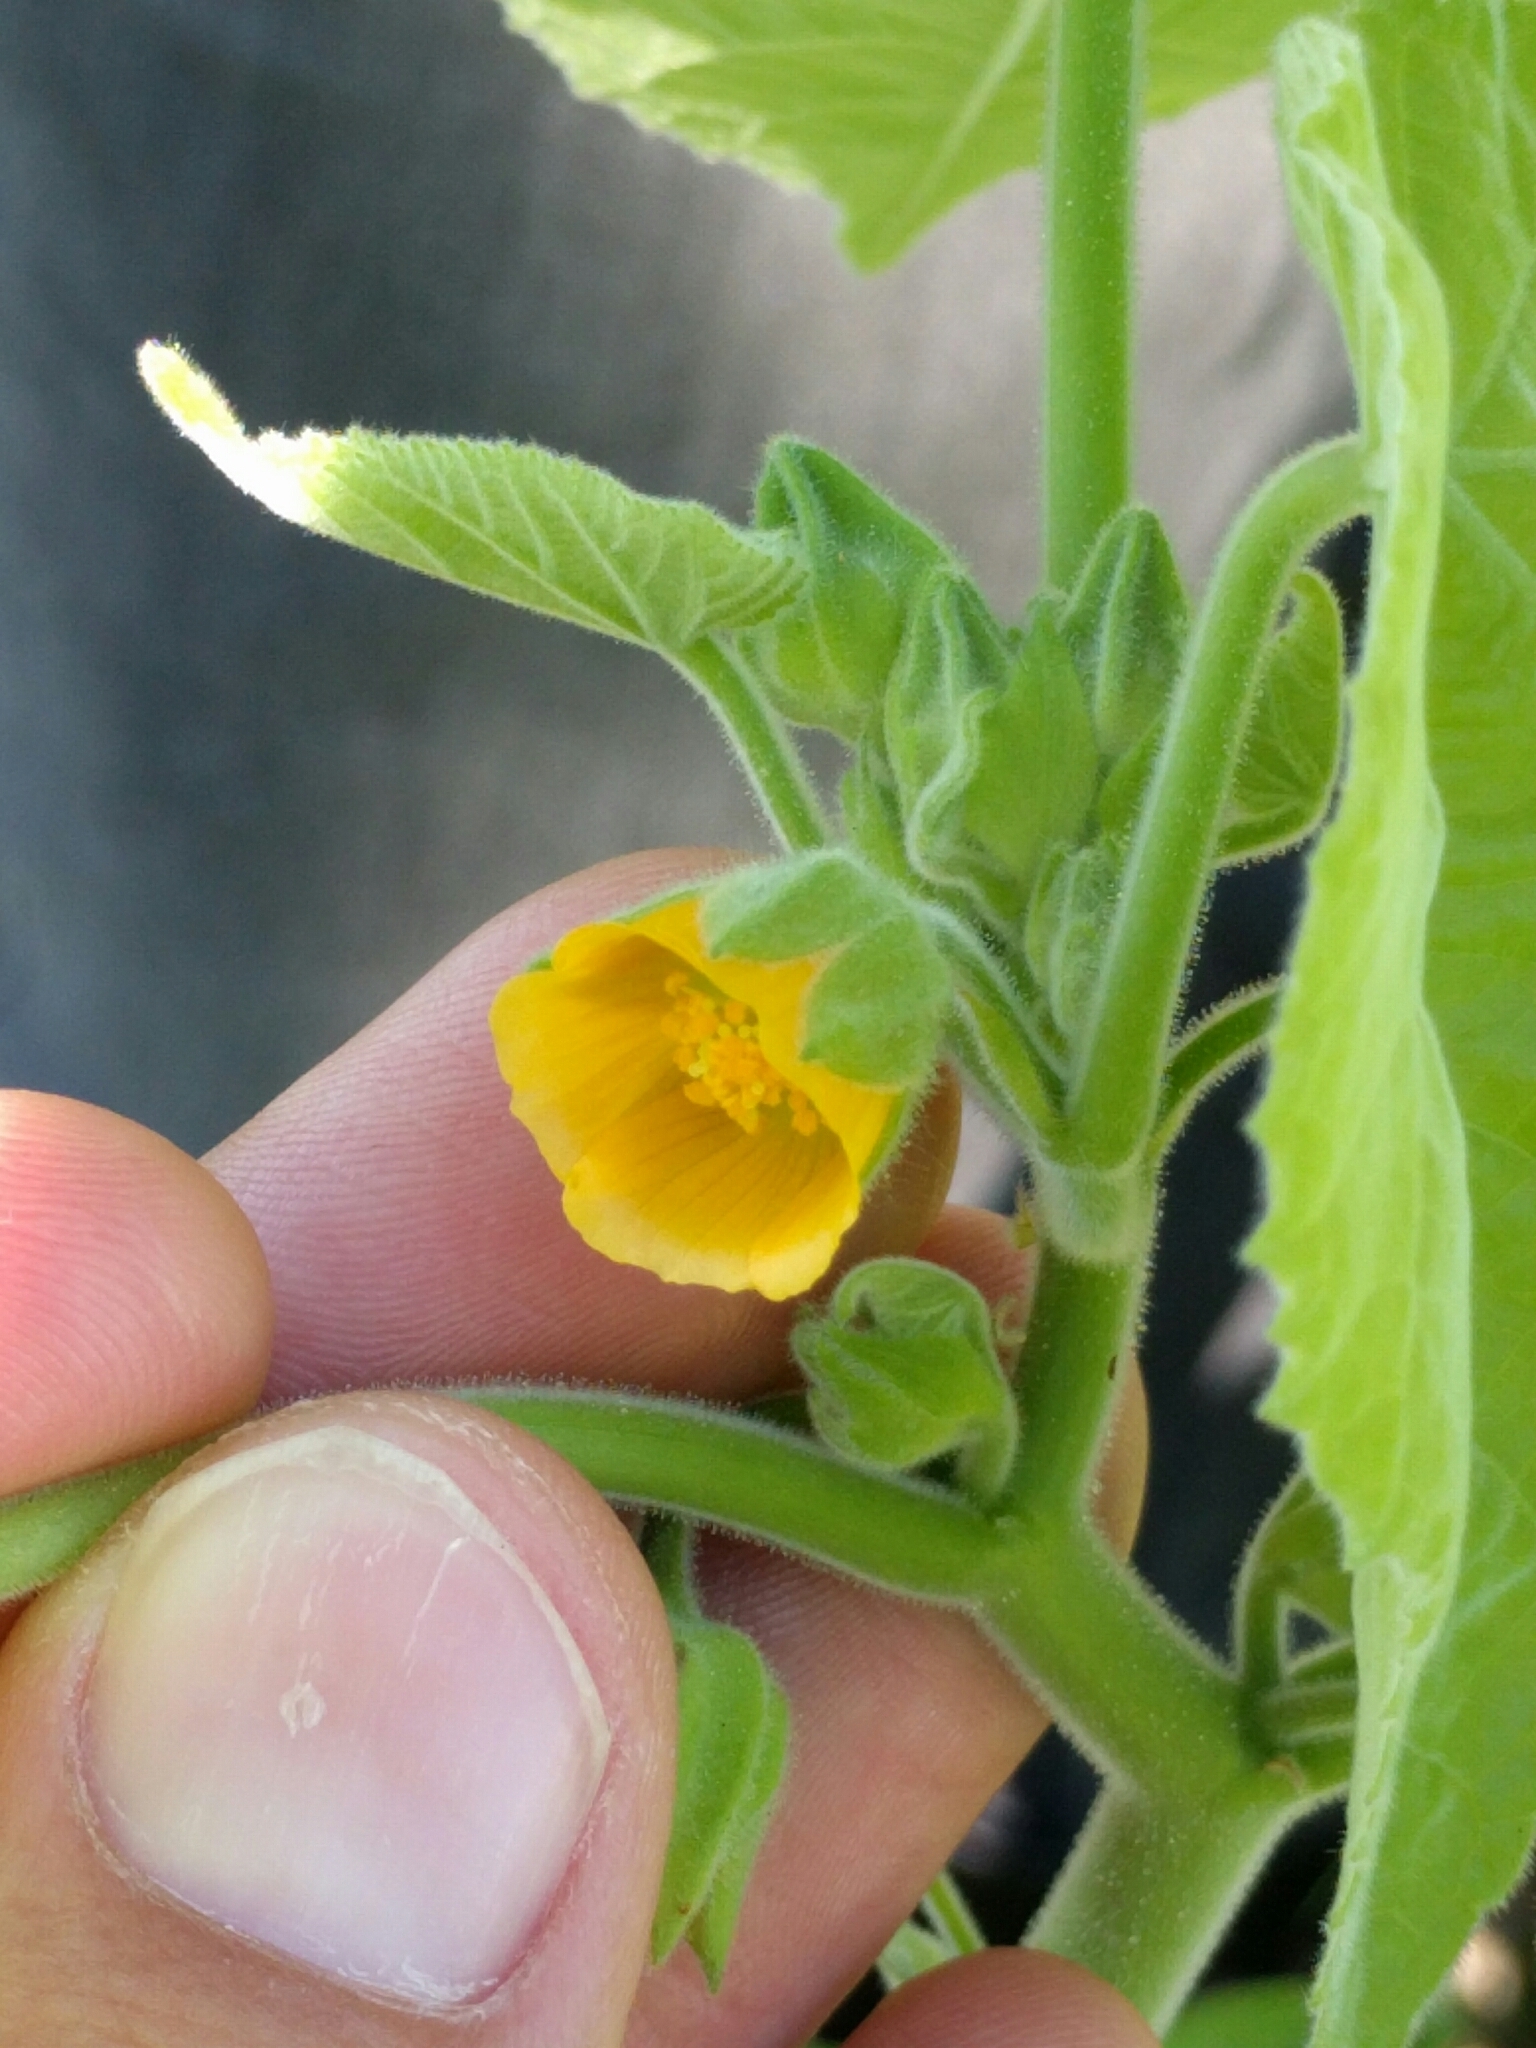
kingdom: Plantae
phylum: Tracheophyta
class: Magnoliopsida
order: Malvales
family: Malvaceae
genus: Abutilon
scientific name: Abutilon theophrasti
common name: Velvetleaf
